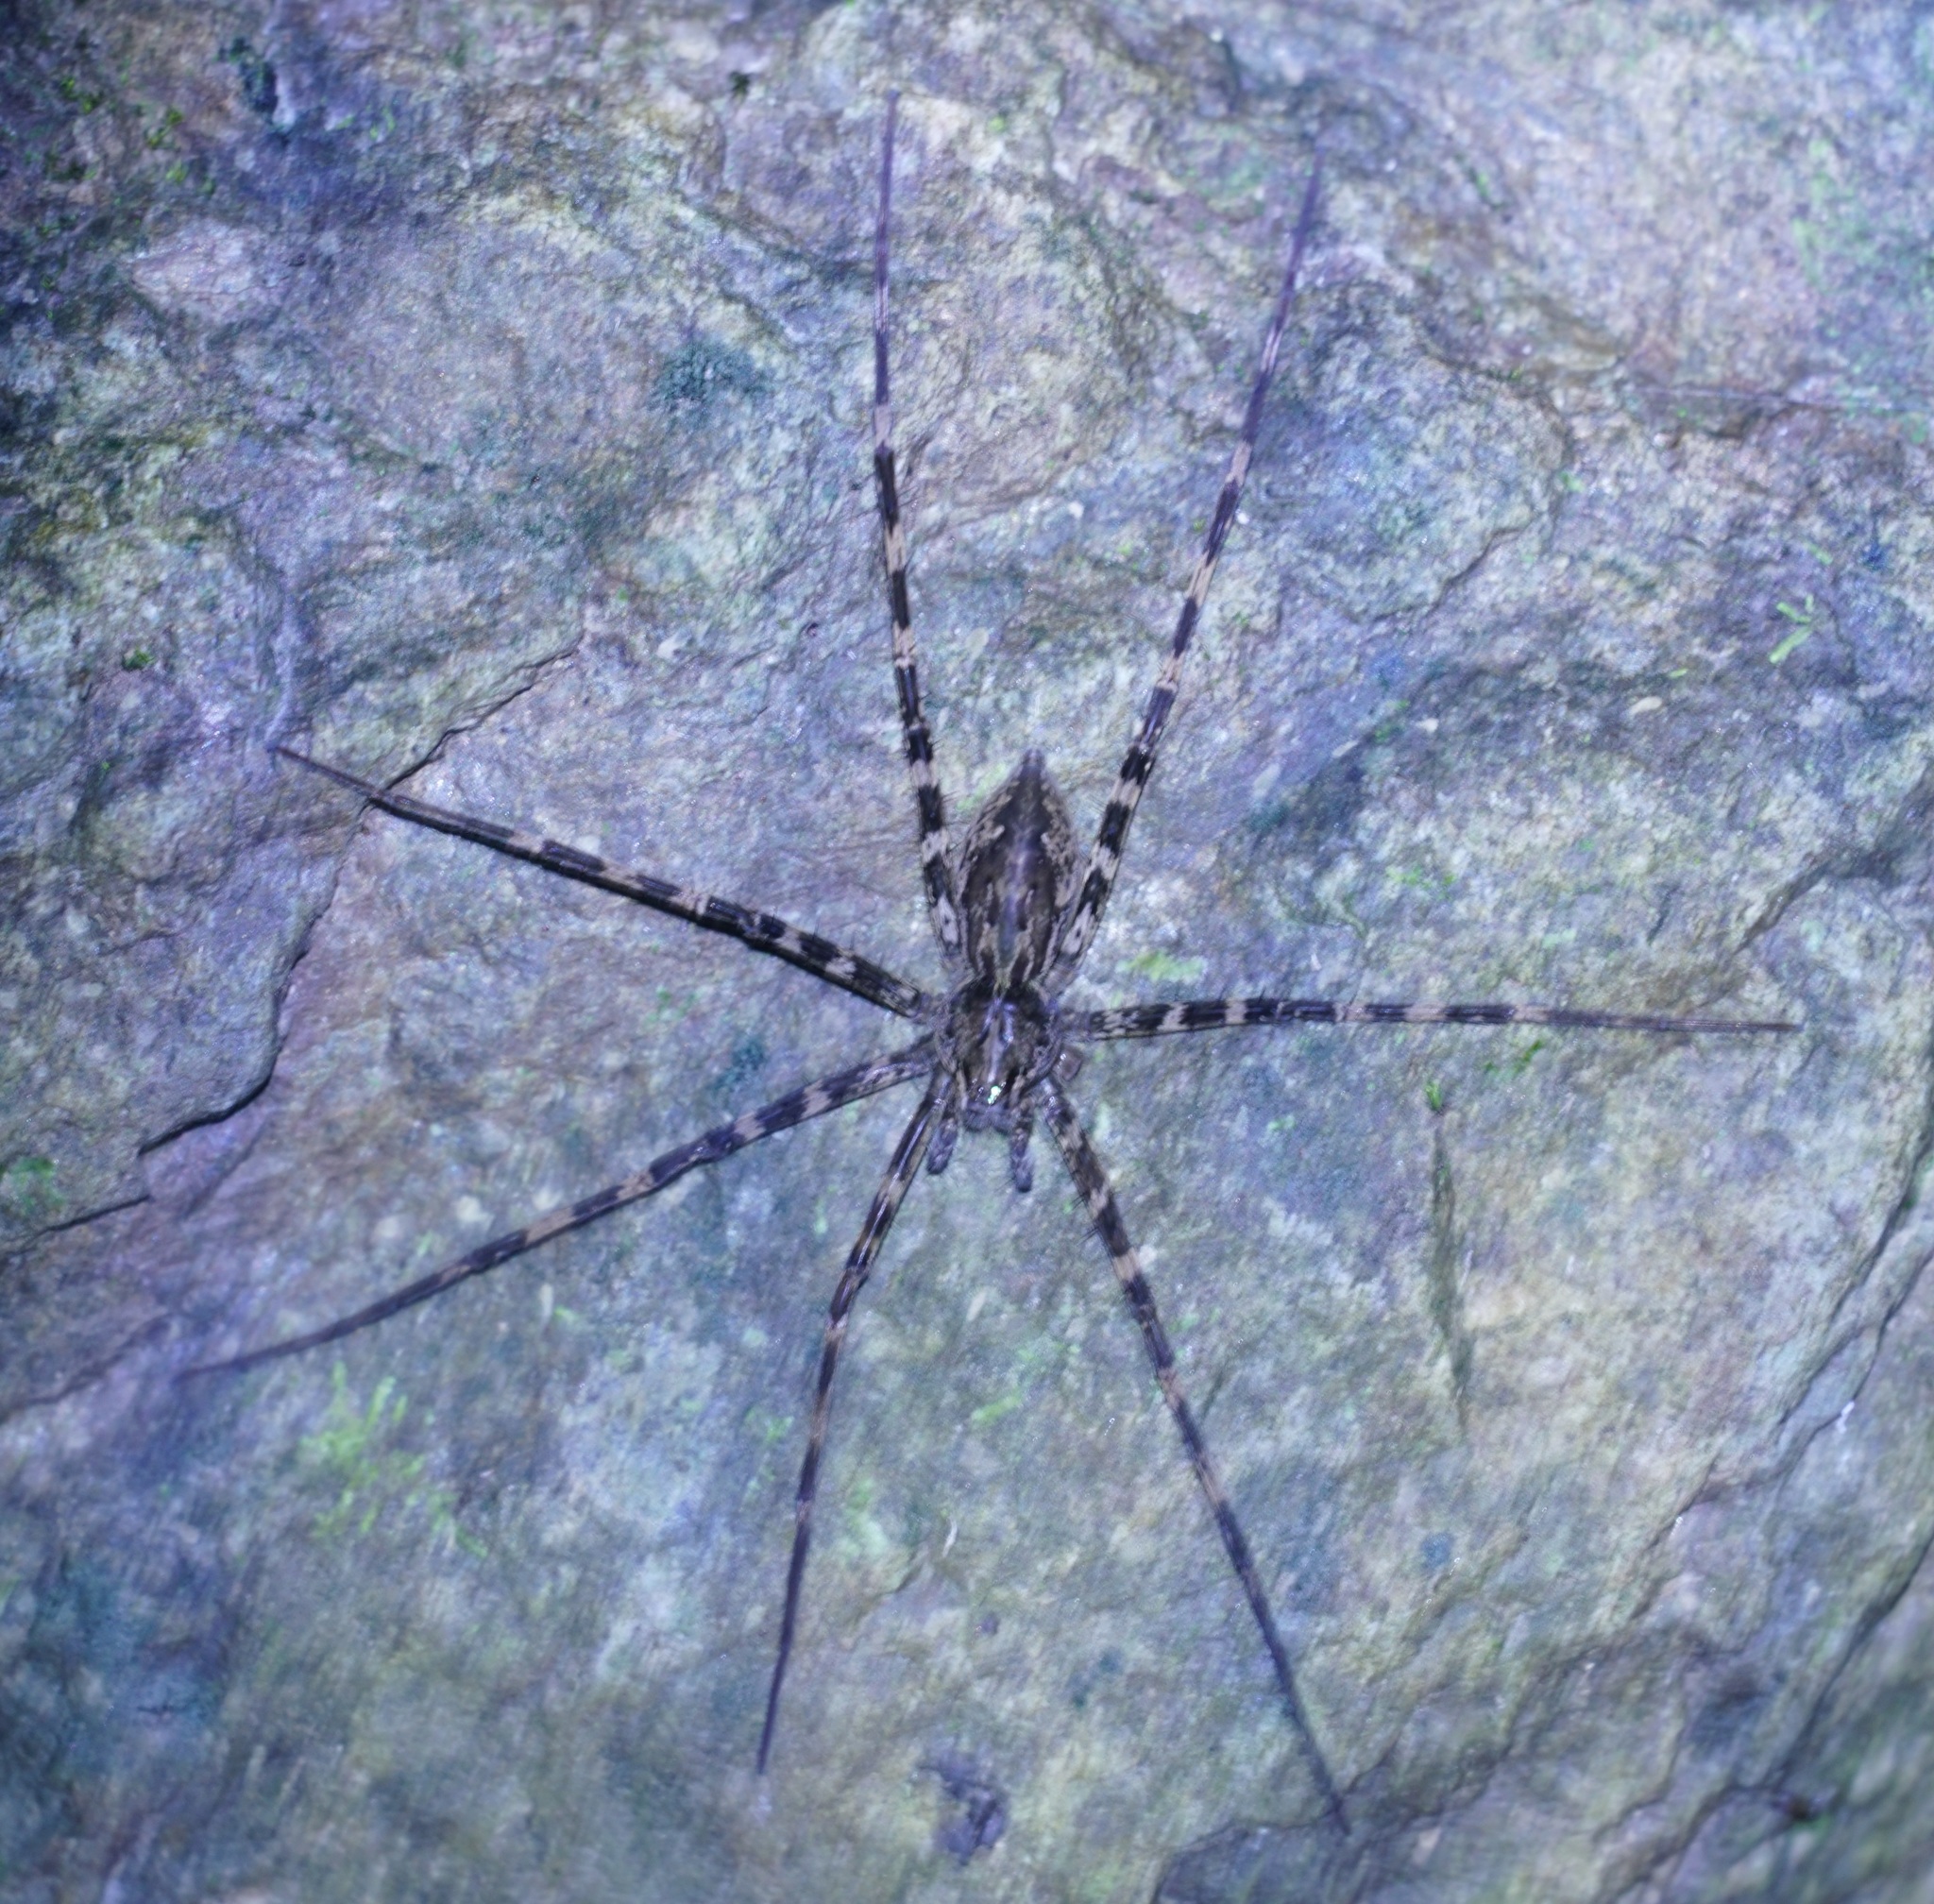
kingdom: Animalia
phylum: Arthropoda
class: Arachnida
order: Araneae
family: Pisauridae
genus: Megadolomedes
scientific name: Megadolomedes trux
